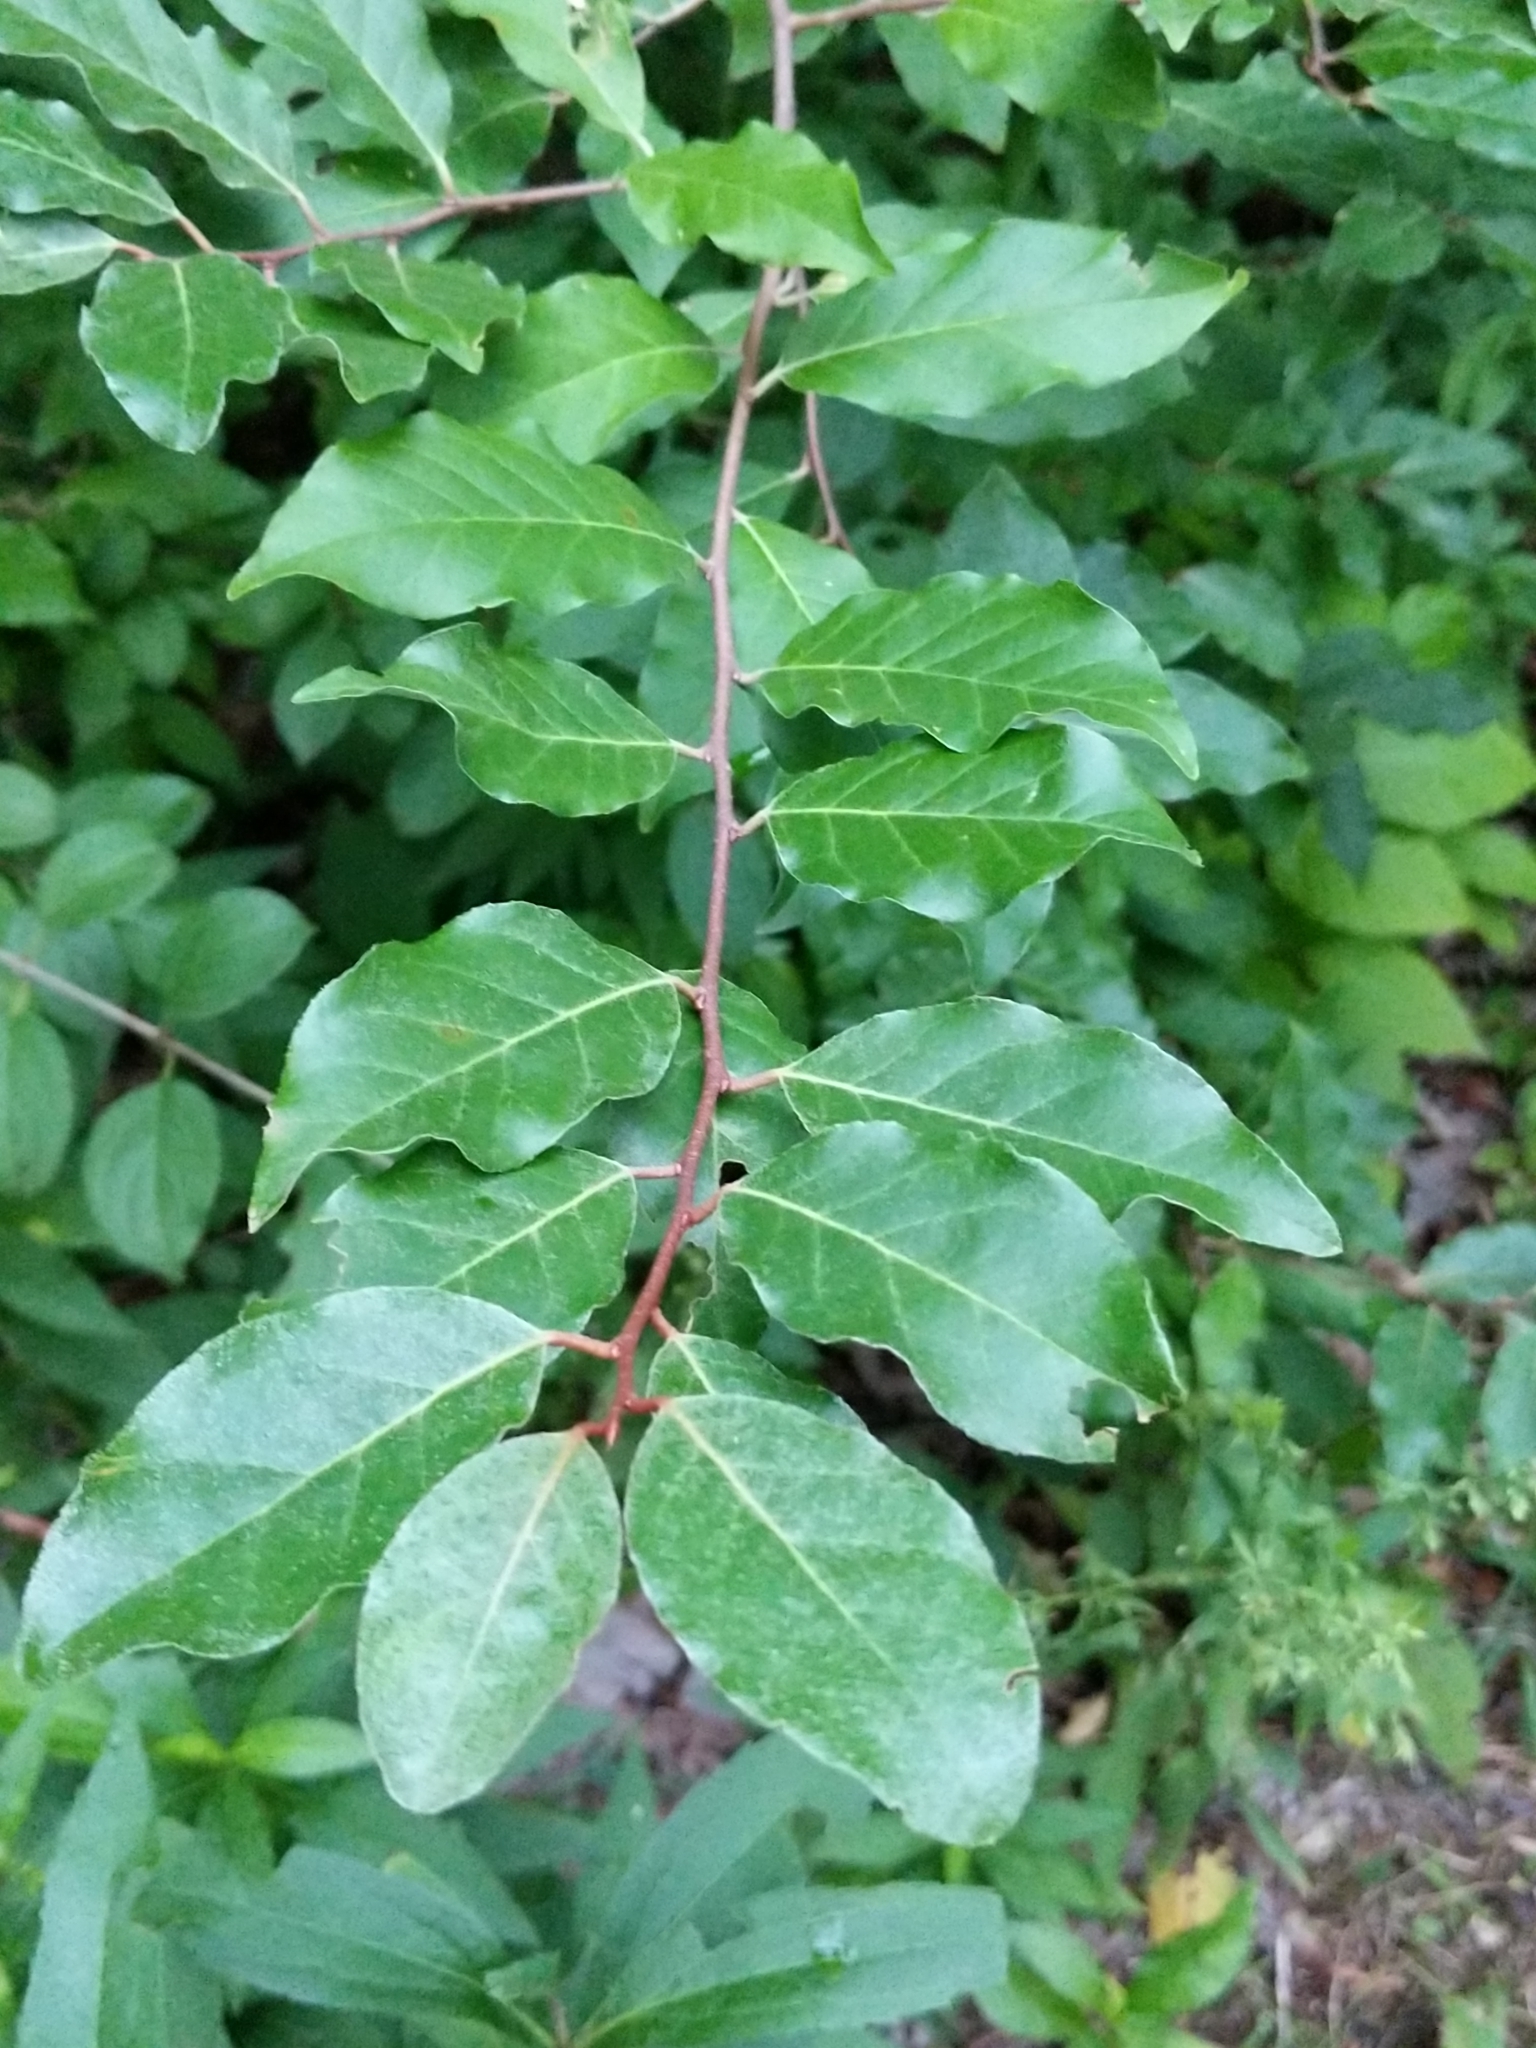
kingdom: Plantae
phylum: Tracheophyta
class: Magnoliopsida
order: Rosales
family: Elaeagnaceae
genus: Elaeagnus
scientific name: Elaeagnus umbellata
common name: Autumn olive
